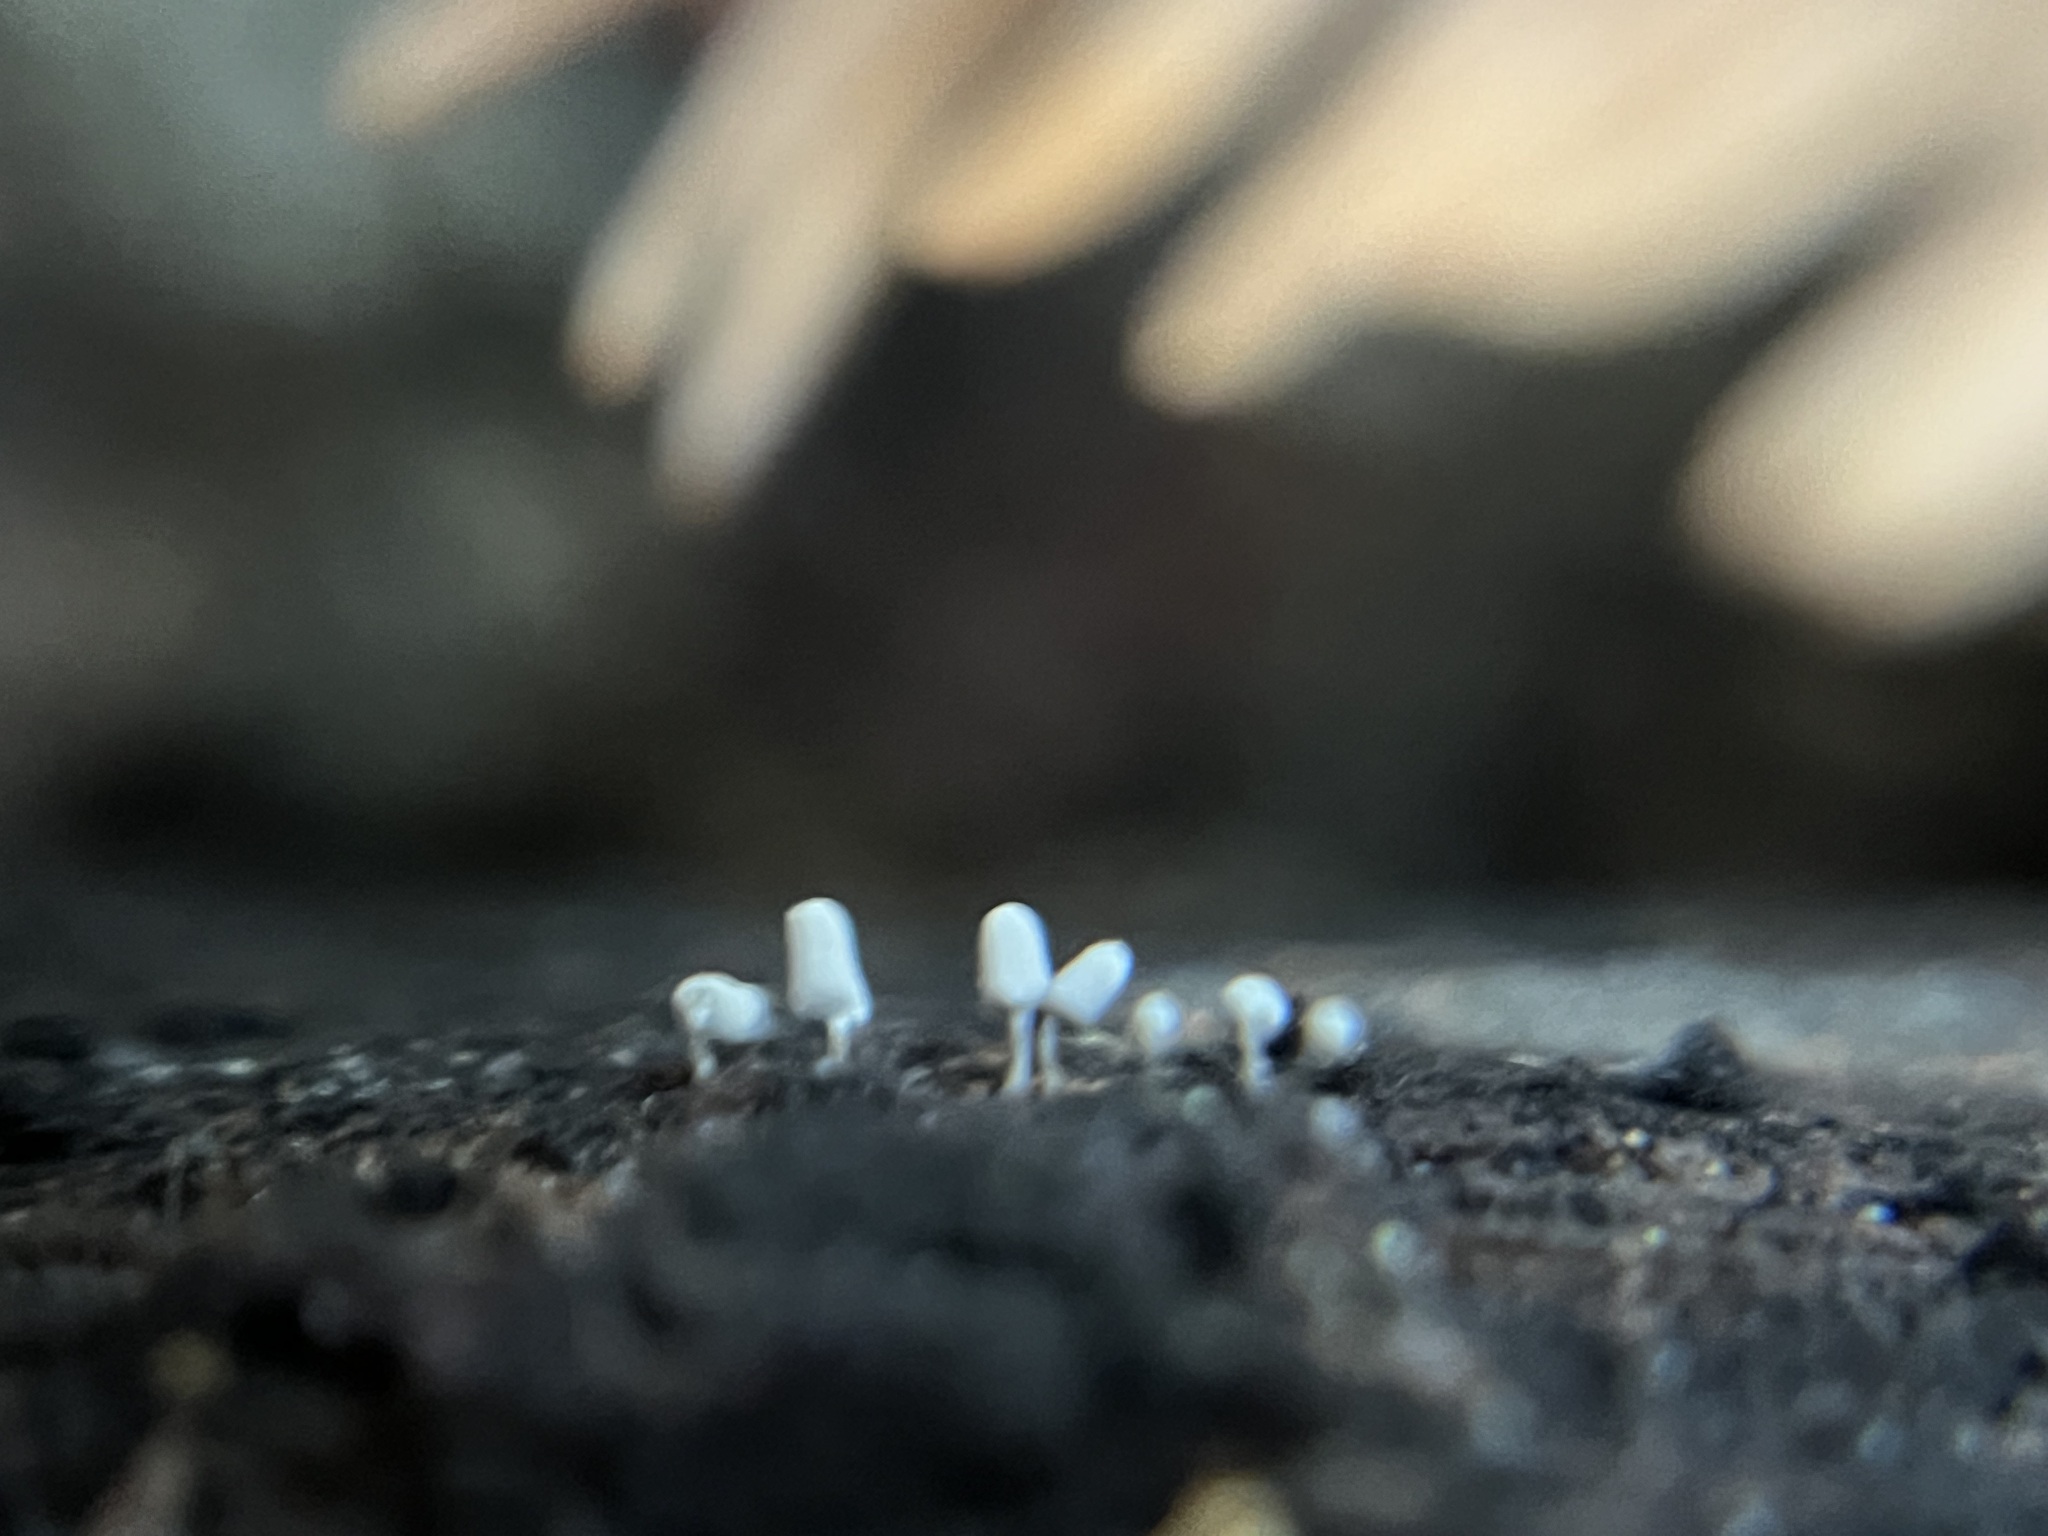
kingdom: Protozoa
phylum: Mycetozoa
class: Myxomycetes
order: Trichiales
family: Arcyriaceae
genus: Arcyria
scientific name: Arcyria cinerea
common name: White carnival candy slime mold
